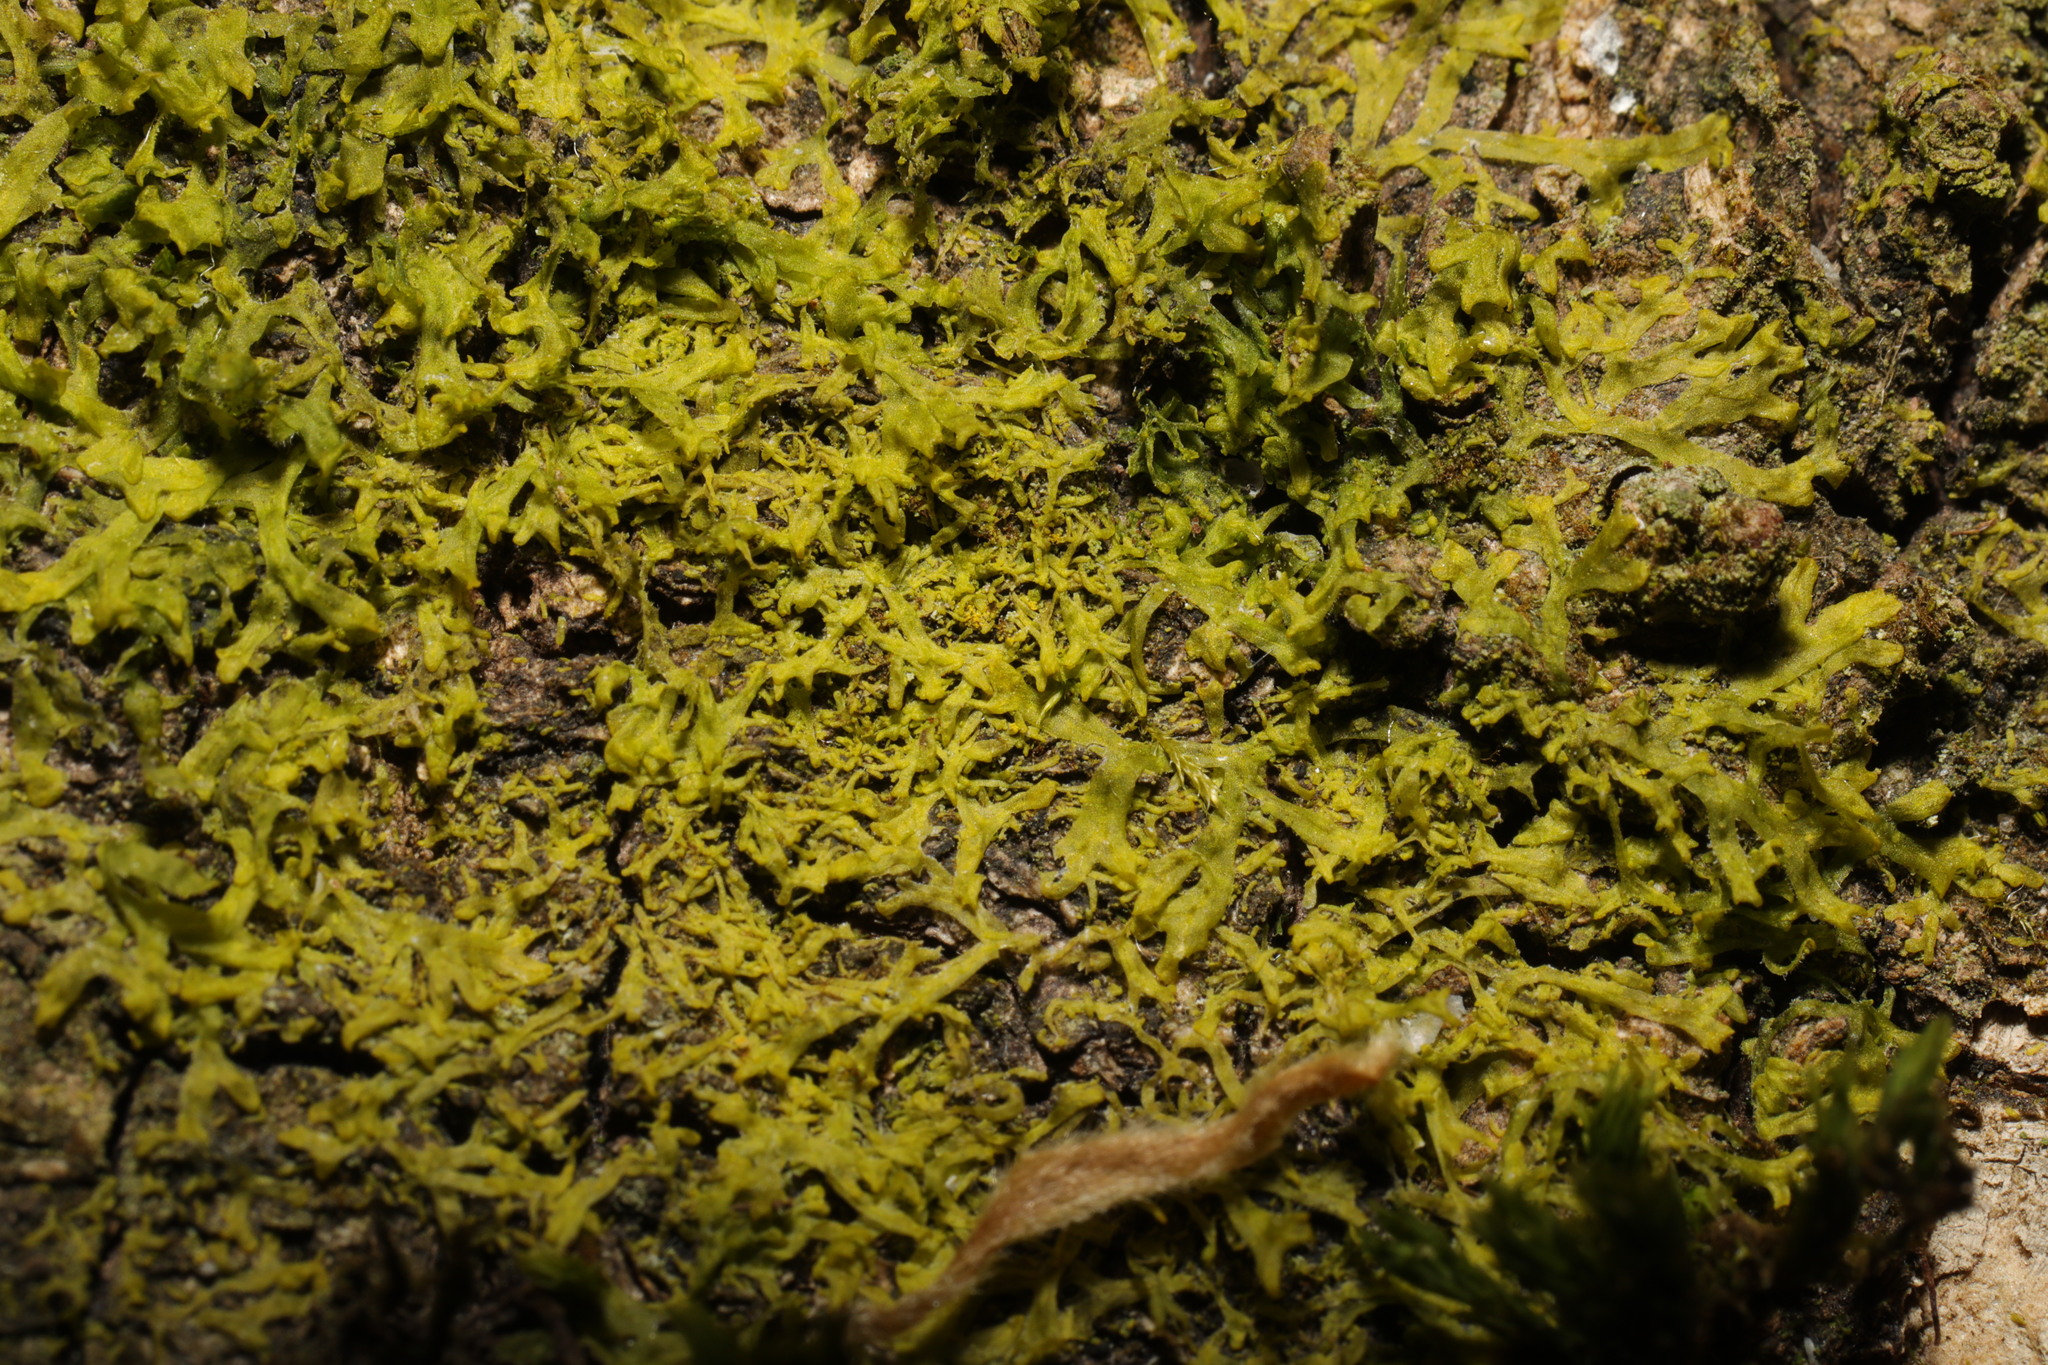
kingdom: Plantae
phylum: Marchantiophyta
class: Jungermanniopsida
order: Metzgeriales
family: Metzgeriaceae
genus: Metzgeria
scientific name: Metzgeria violacea
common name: Blueish veilwort
